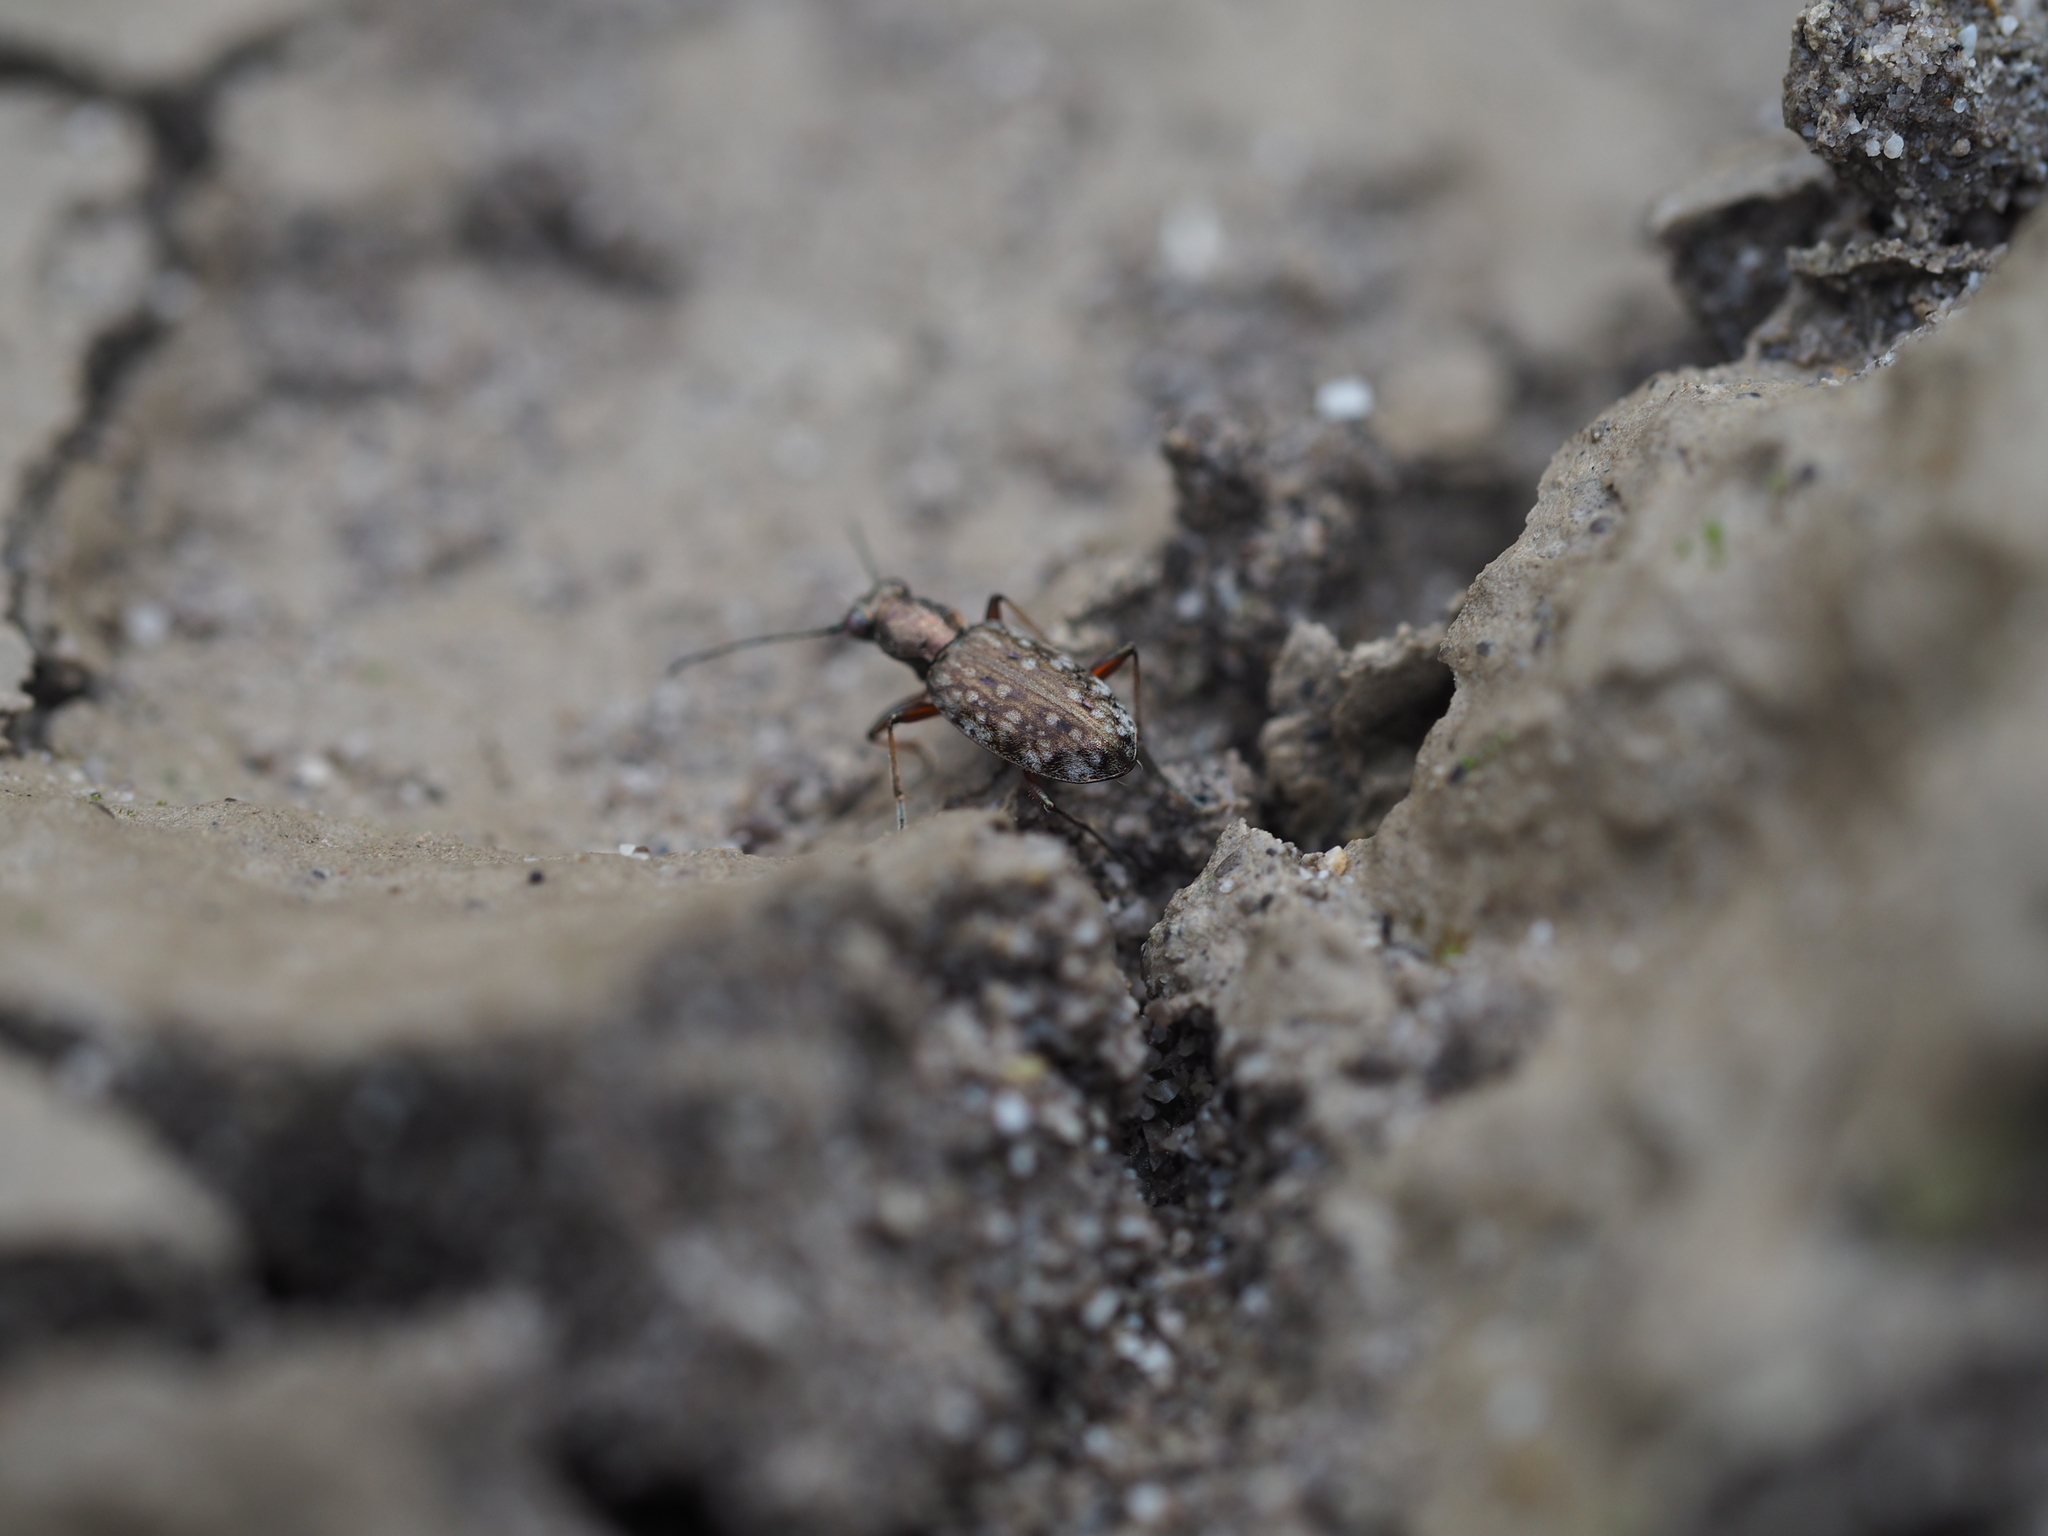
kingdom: Animalia
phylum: Arthropoda
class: Insecta
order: Coleoptera
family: Carabidae
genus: Asaphidion
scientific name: Asaphidion caraboides
